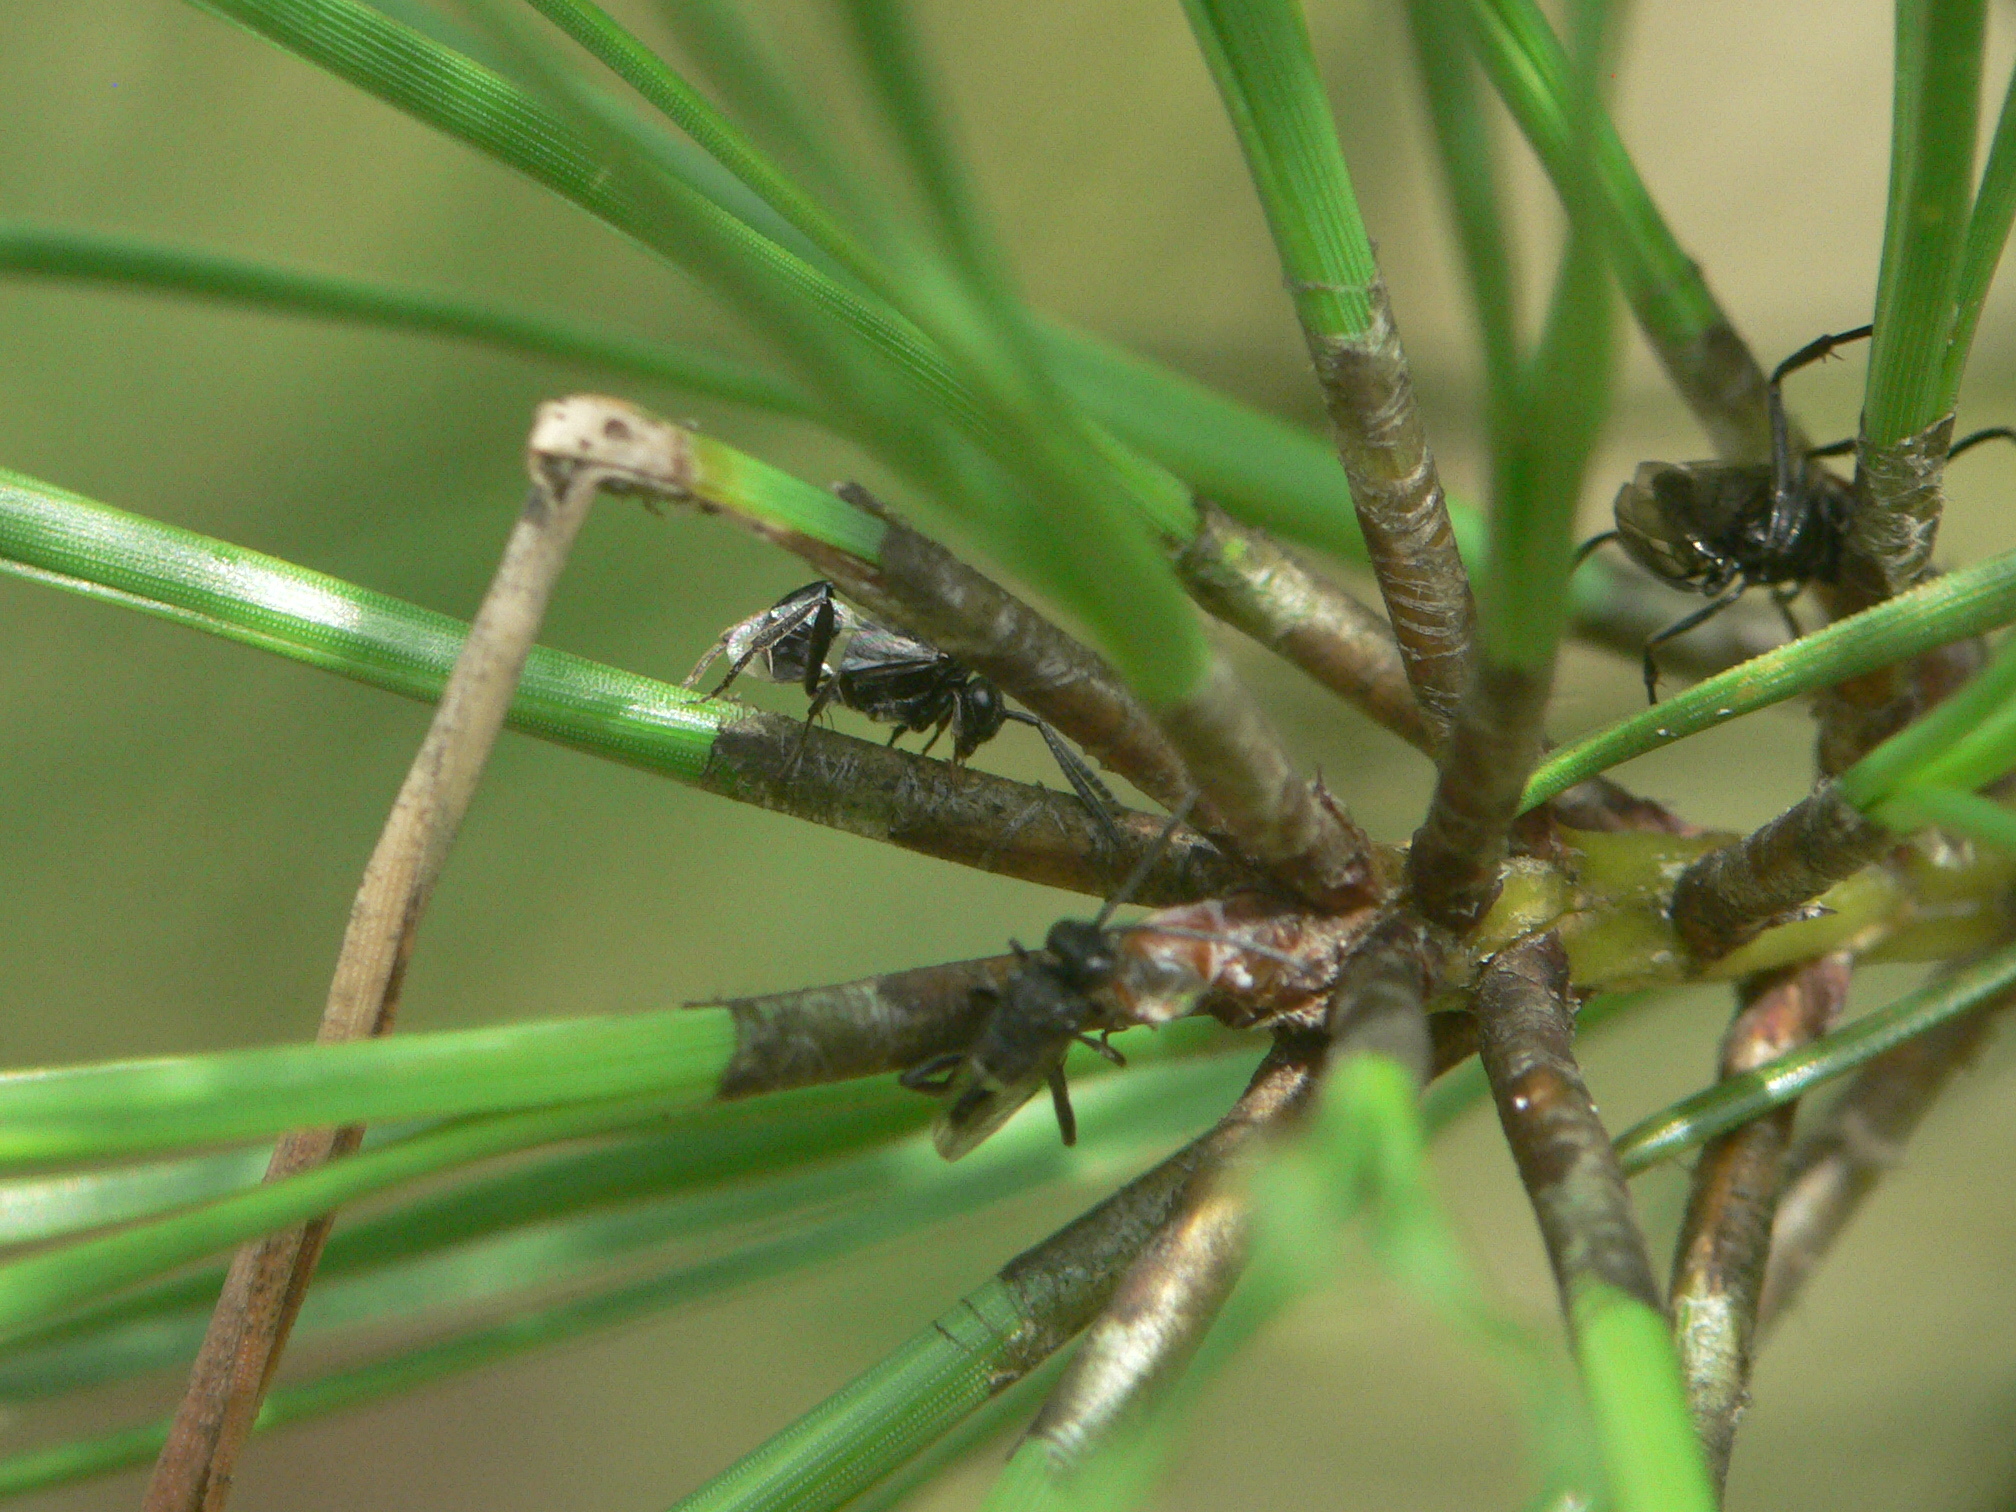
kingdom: Animalia
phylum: Arthropoda
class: Insecta
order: Hymenoptera
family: Evaniidae
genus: Evaniella
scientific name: Evaniella semaeoda
